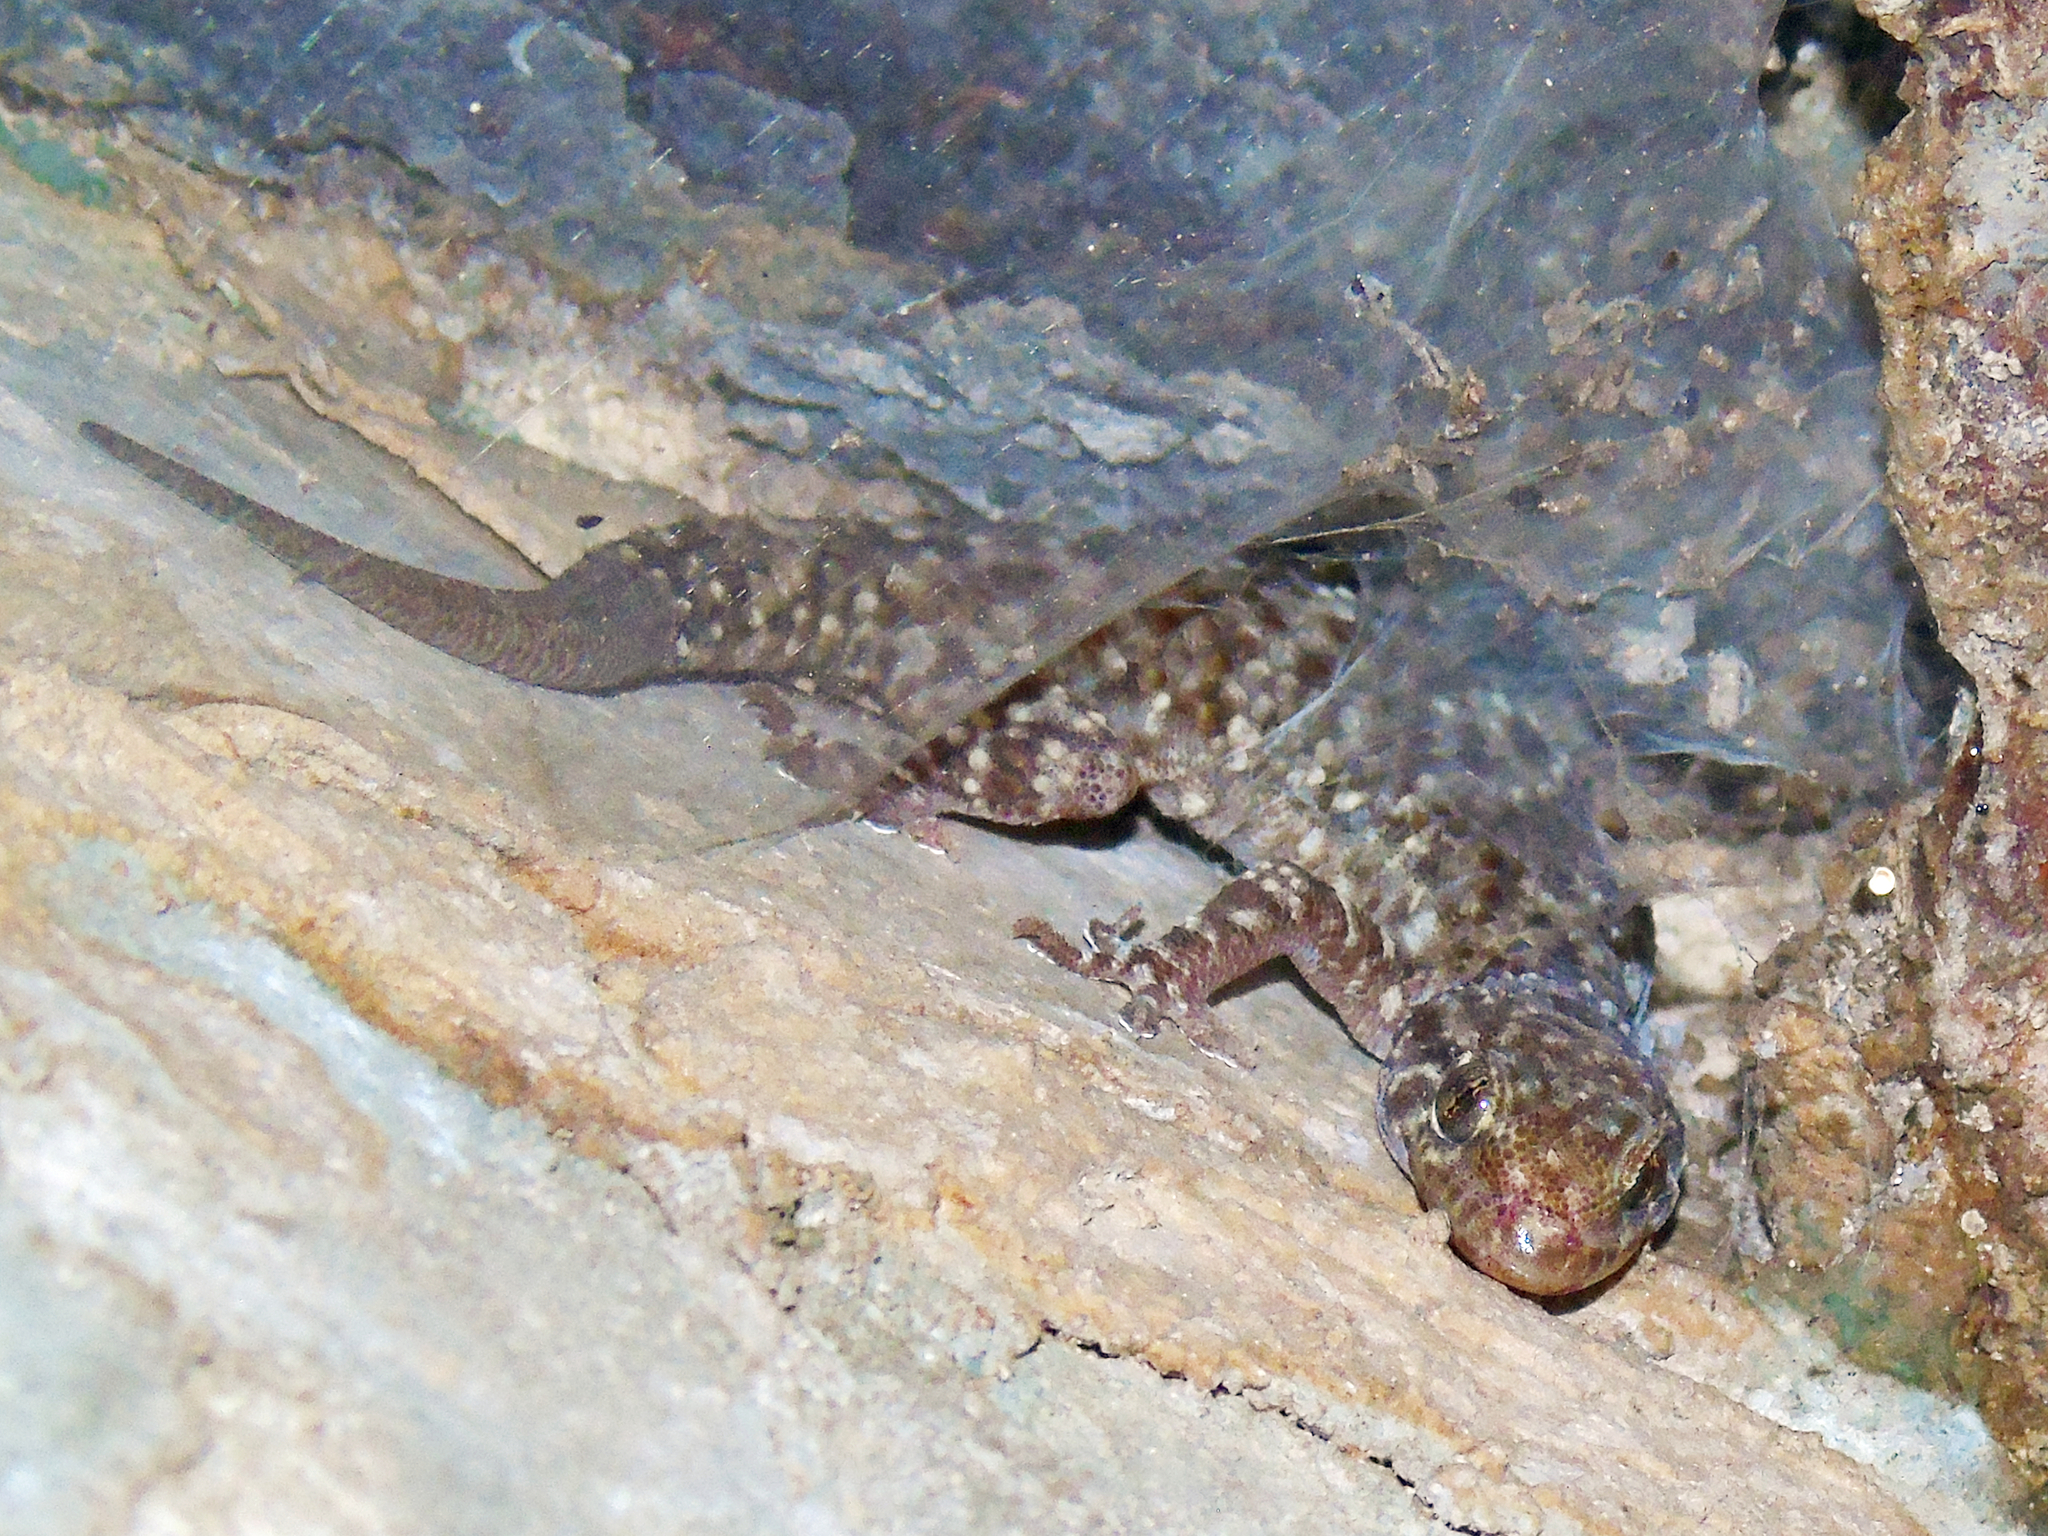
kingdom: Animalia
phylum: Chordata
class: Squamata
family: Gekkonidae
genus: Hemidactylus
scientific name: Hemidactylus turcicus
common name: Turkish gecko
